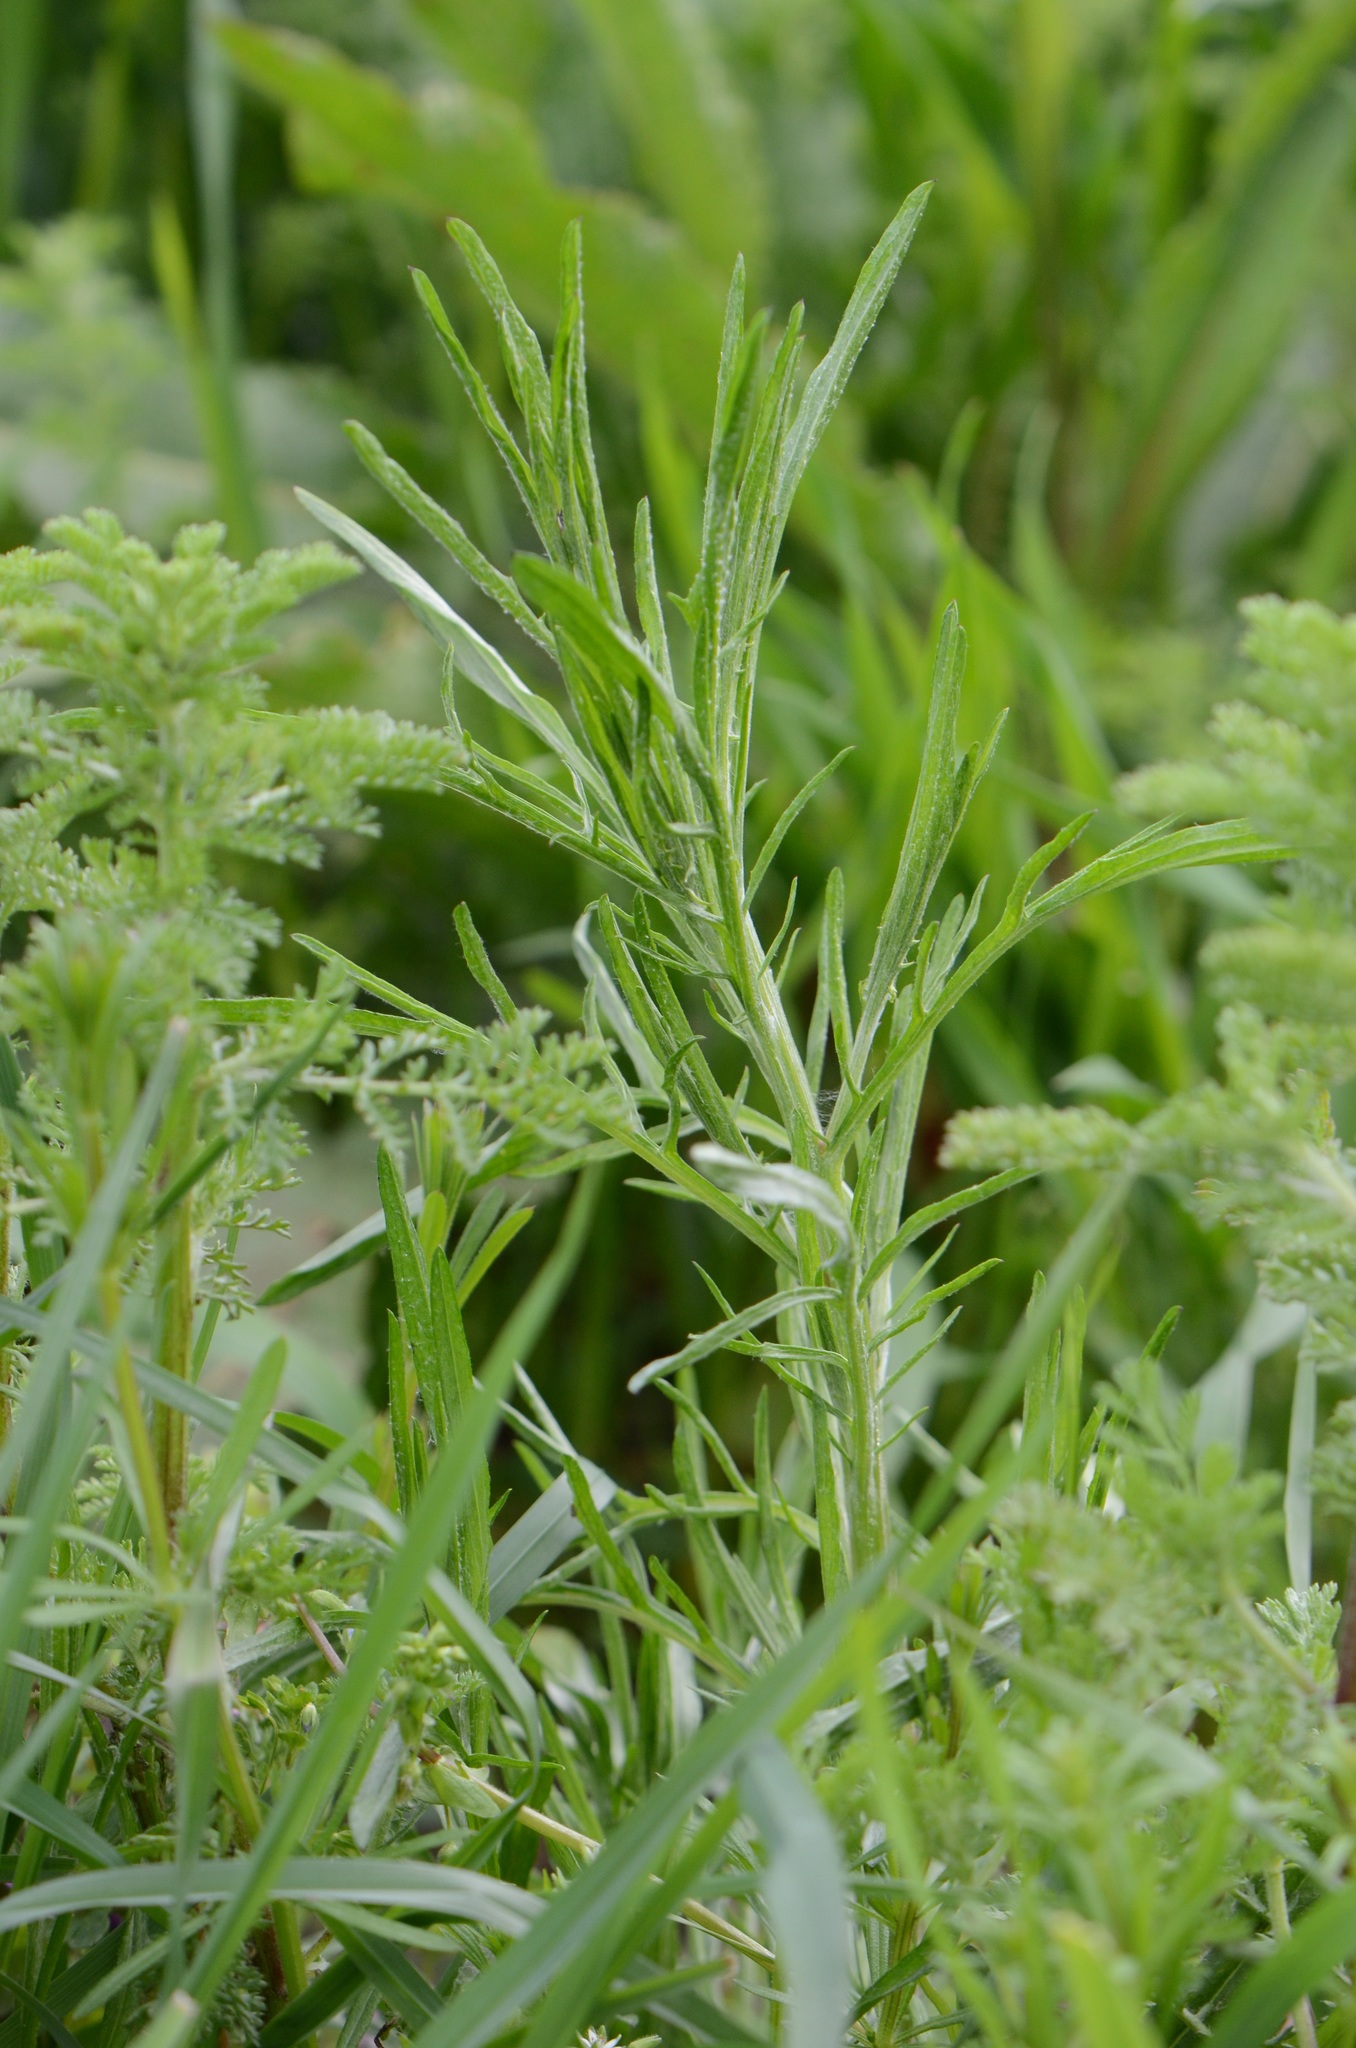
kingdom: Plantae
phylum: Tracheophyta
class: Magnoliopsida
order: Asterales
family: Asteraceae
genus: Centaurea
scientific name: Centaurea cyanus
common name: Cornflower
